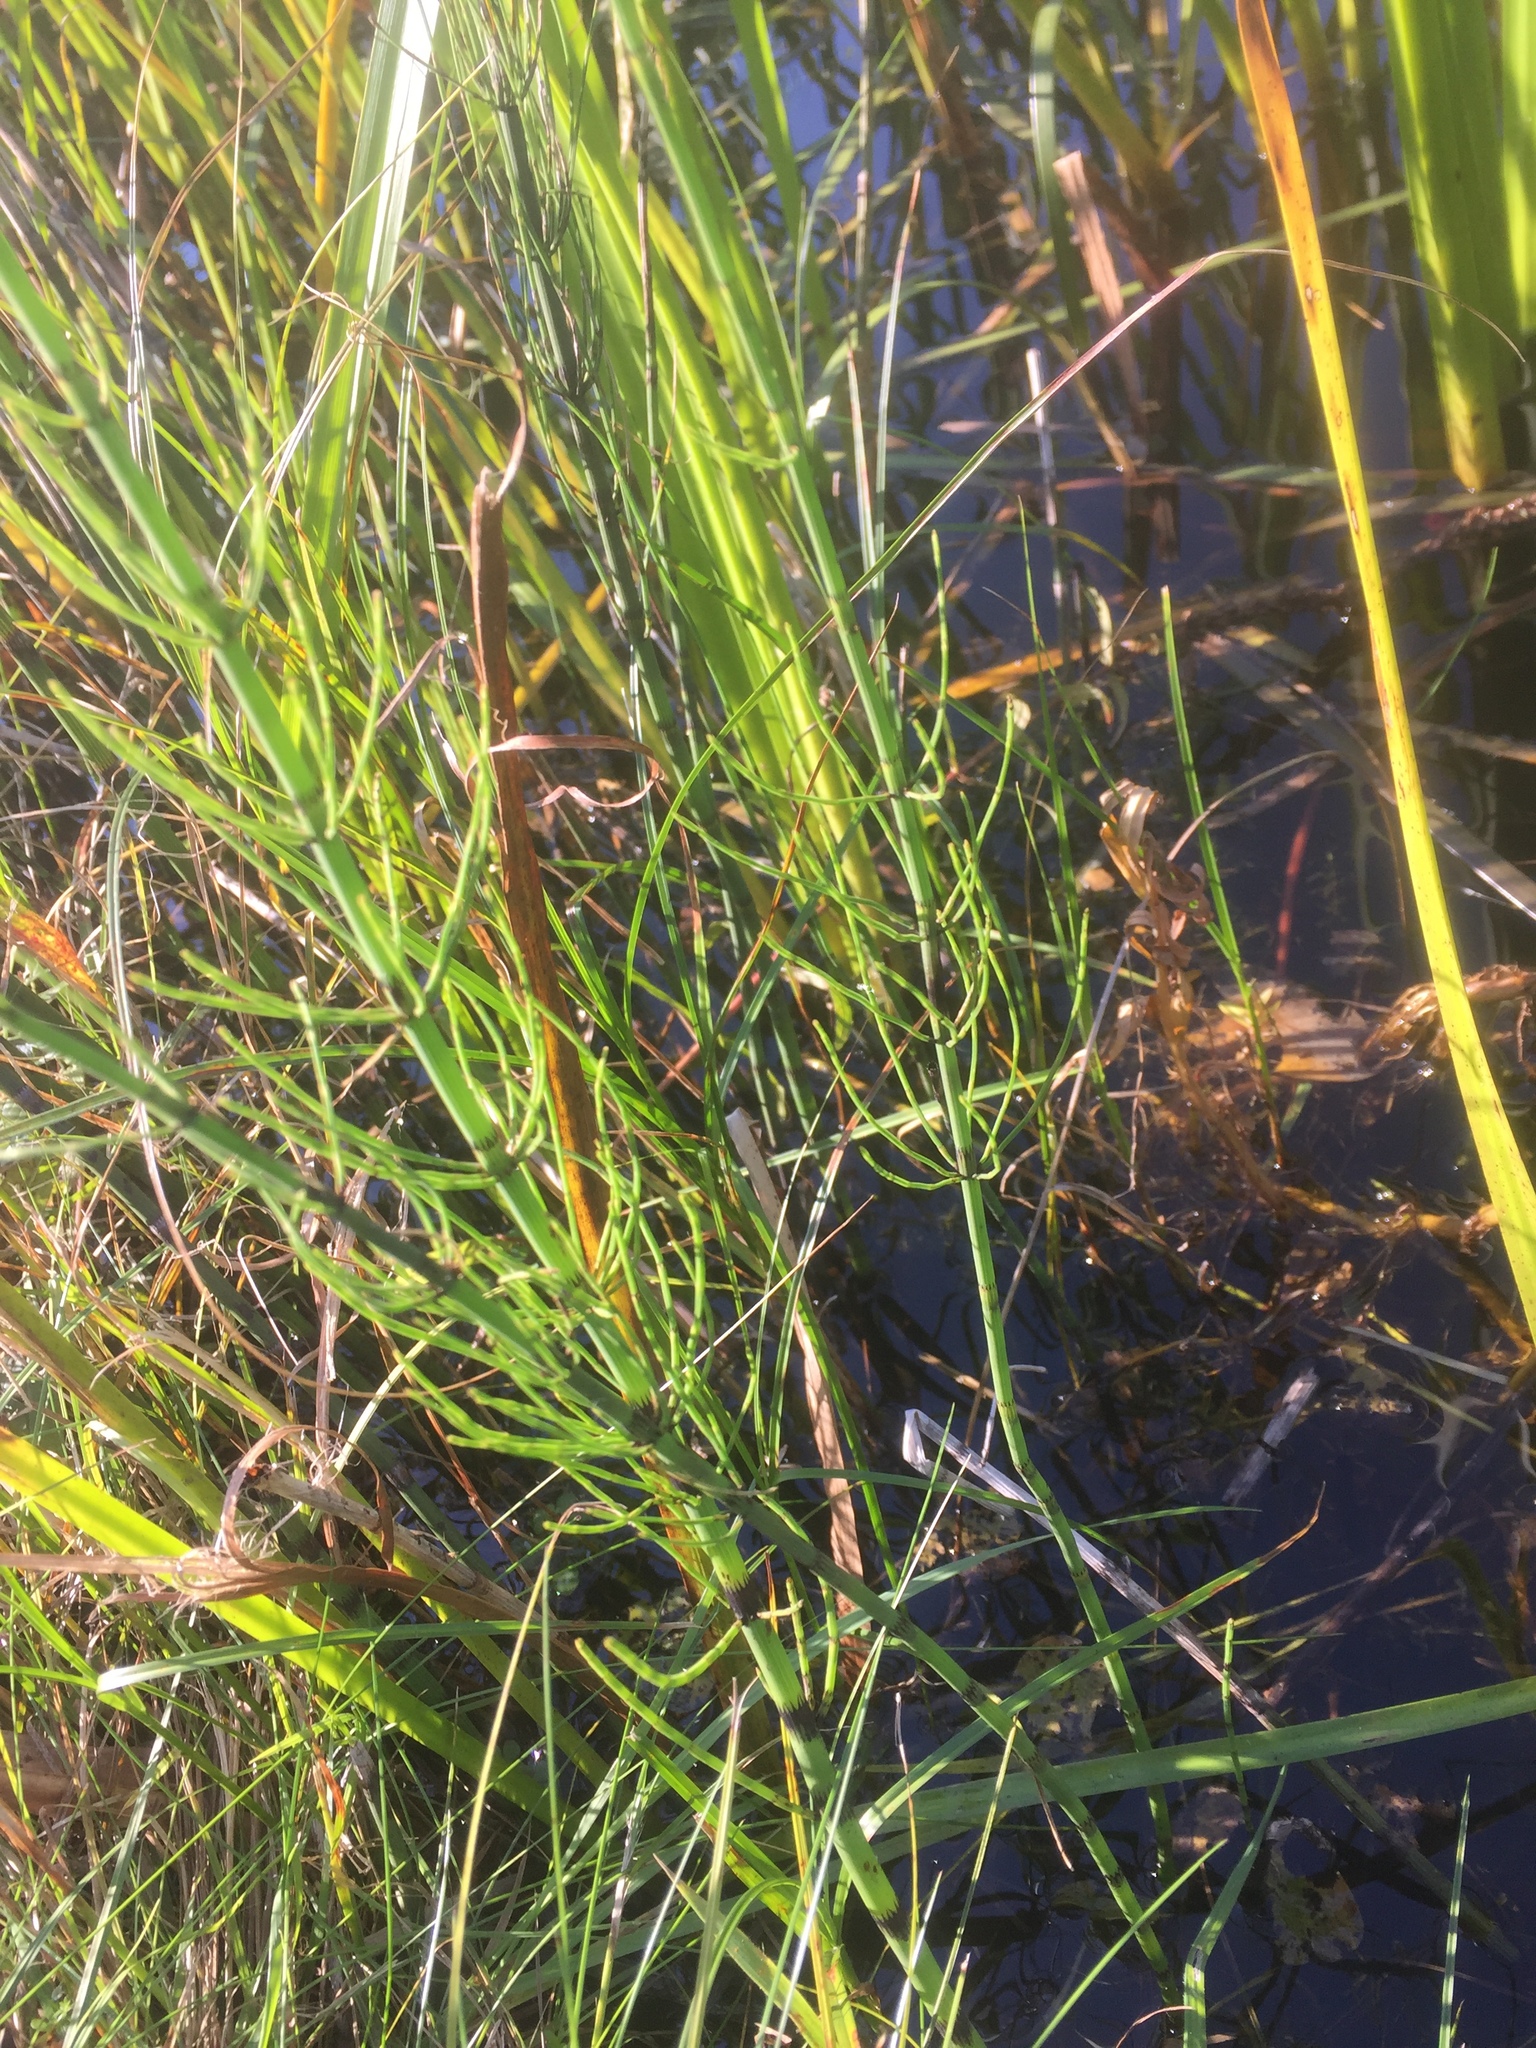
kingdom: Plantae
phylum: Tracheophyta
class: Polypodiopsida
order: Equisetales
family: Equisetaceae
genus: Equisetum
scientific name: Equisetum fluviatile
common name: Water horsetail
